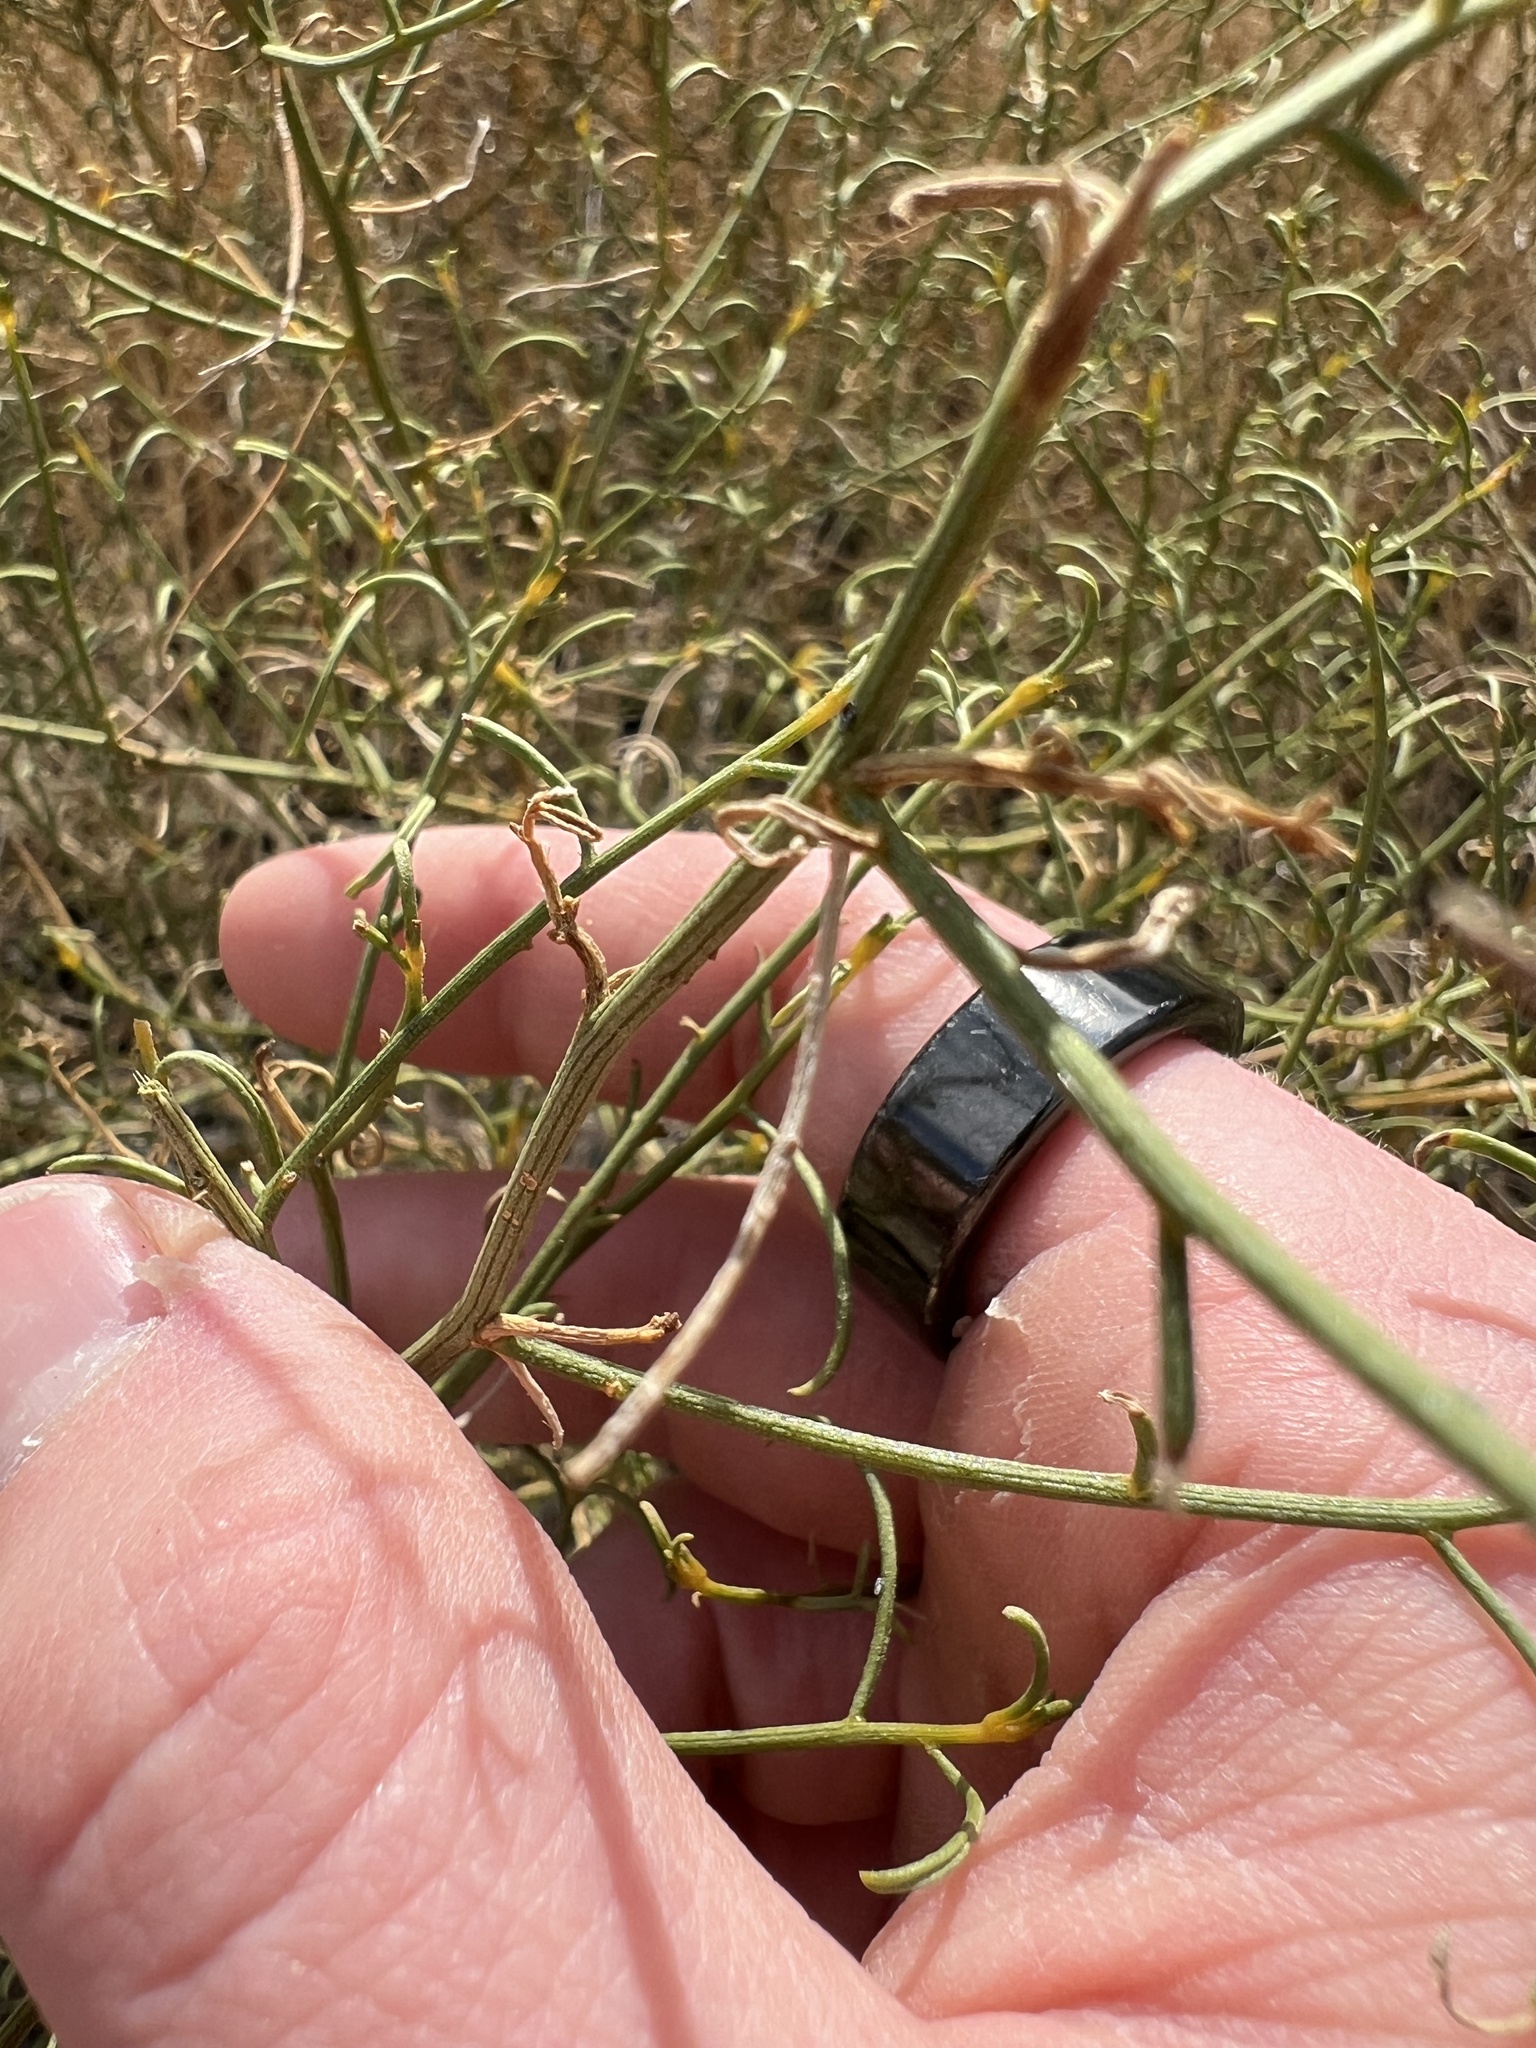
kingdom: Plantae
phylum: Tracheophyta
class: Magnoliopsida
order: Asterales
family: Asteraceae
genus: Ambrosia
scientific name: Ambrosia salsola
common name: Burrobrush
